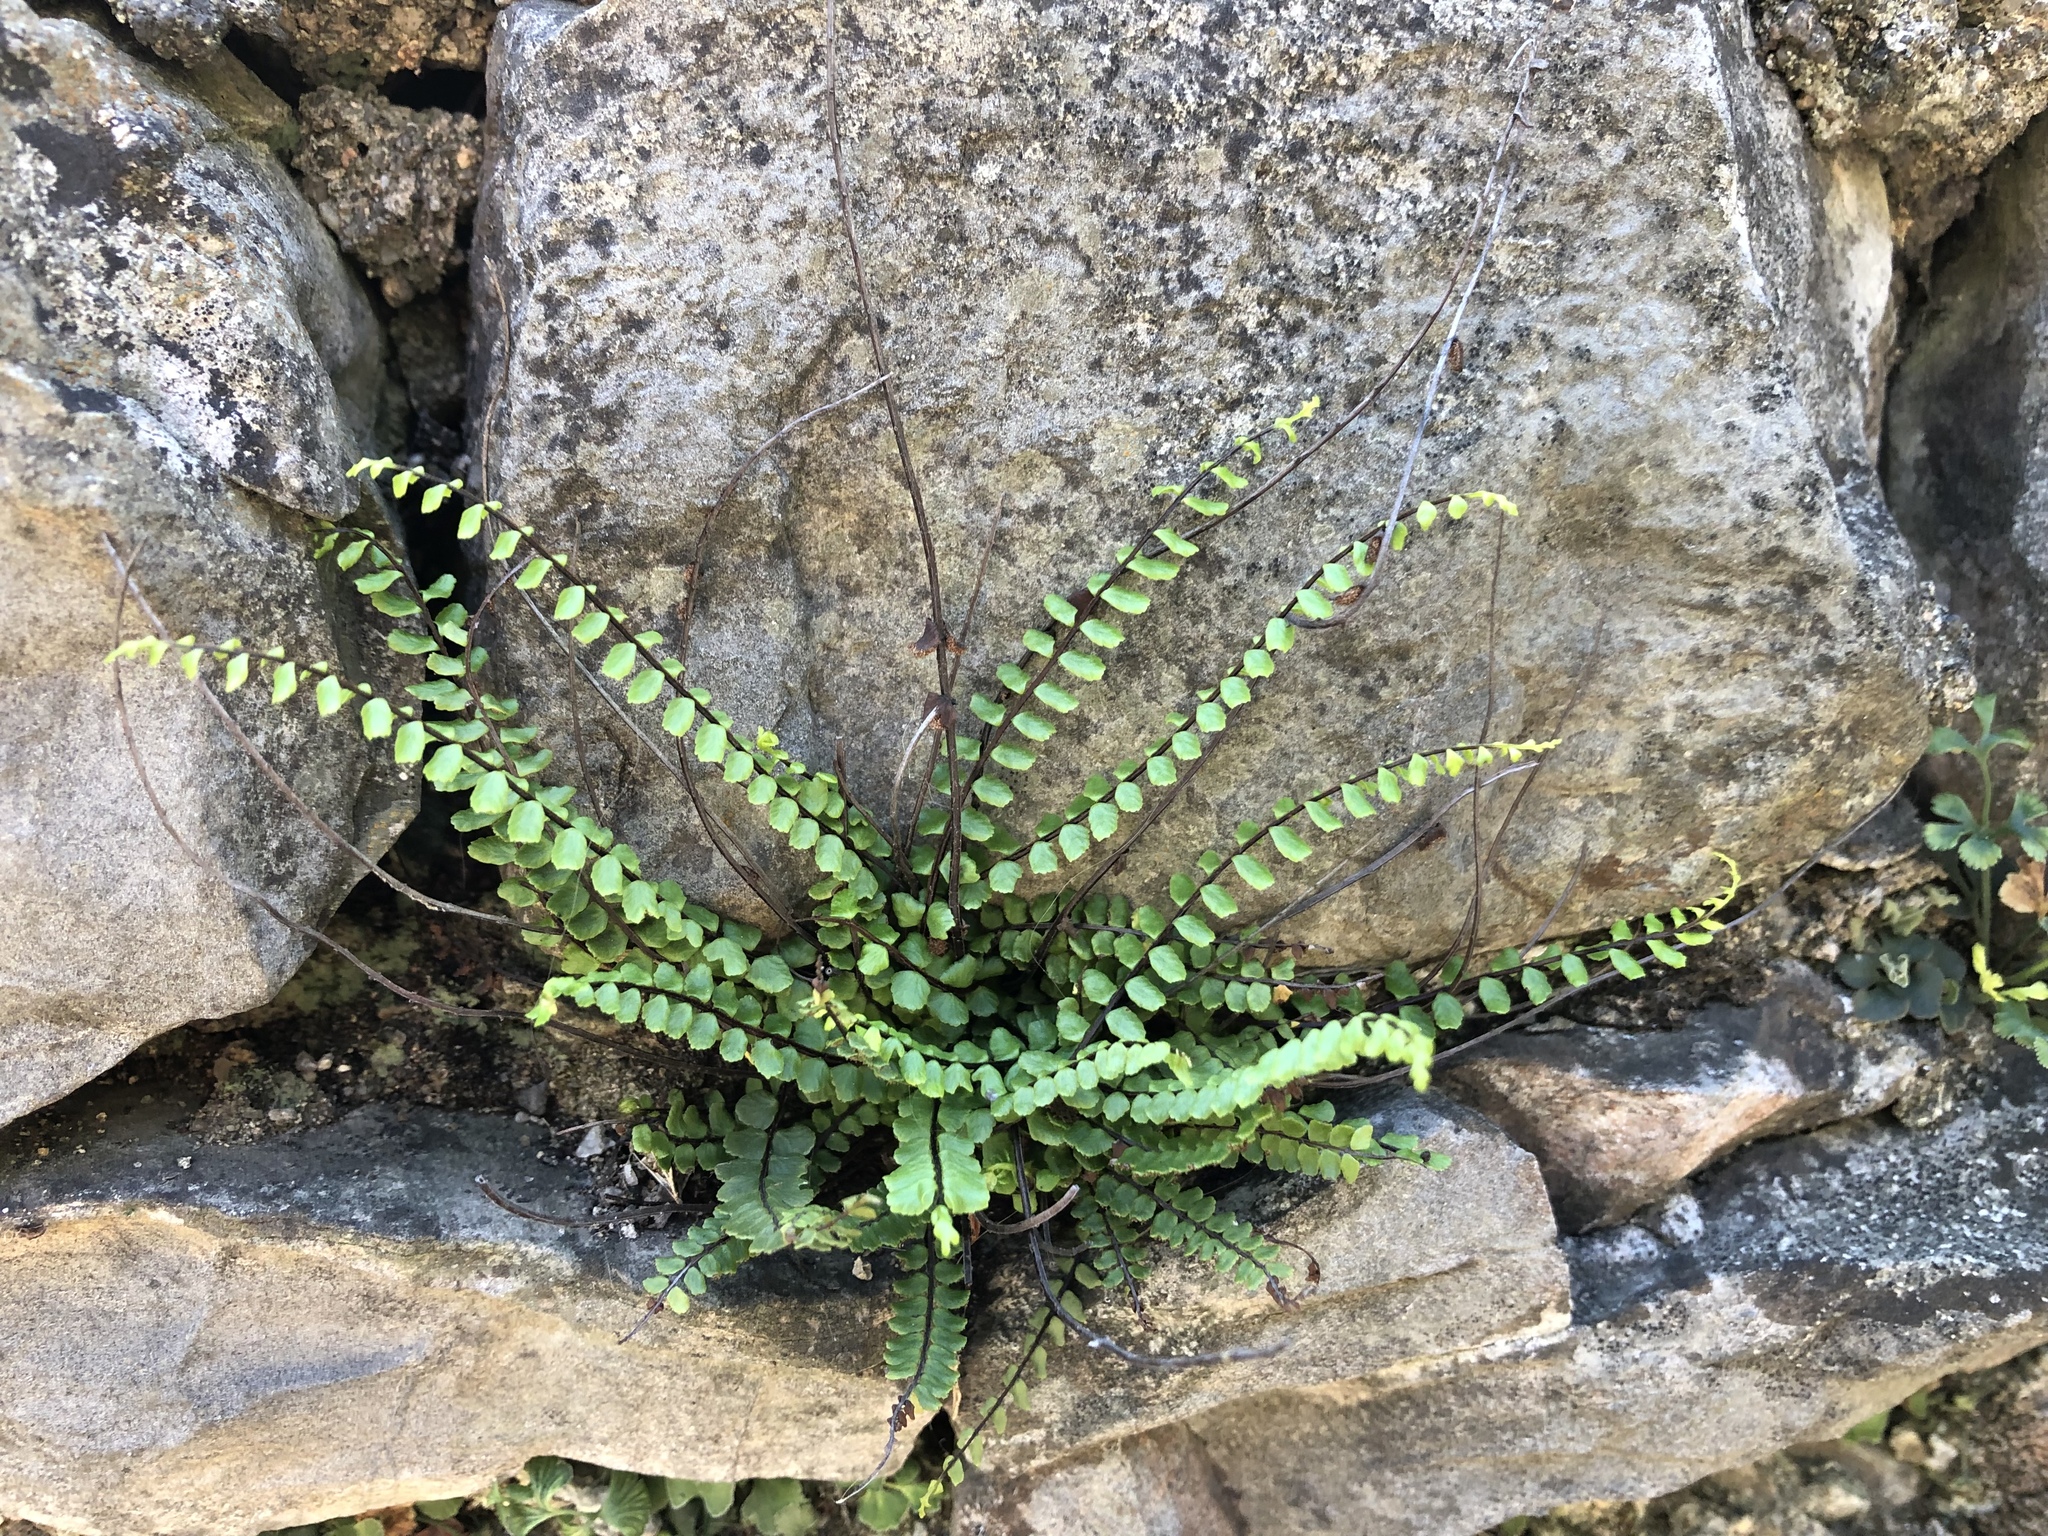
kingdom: Plantae
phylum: Tracheophyta
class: Polypodiopsida
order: Polypodiales
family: Aspleniaceae
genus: Asplenium
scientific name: Asplenium trichomanes
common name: Maidenhair spleenwort
